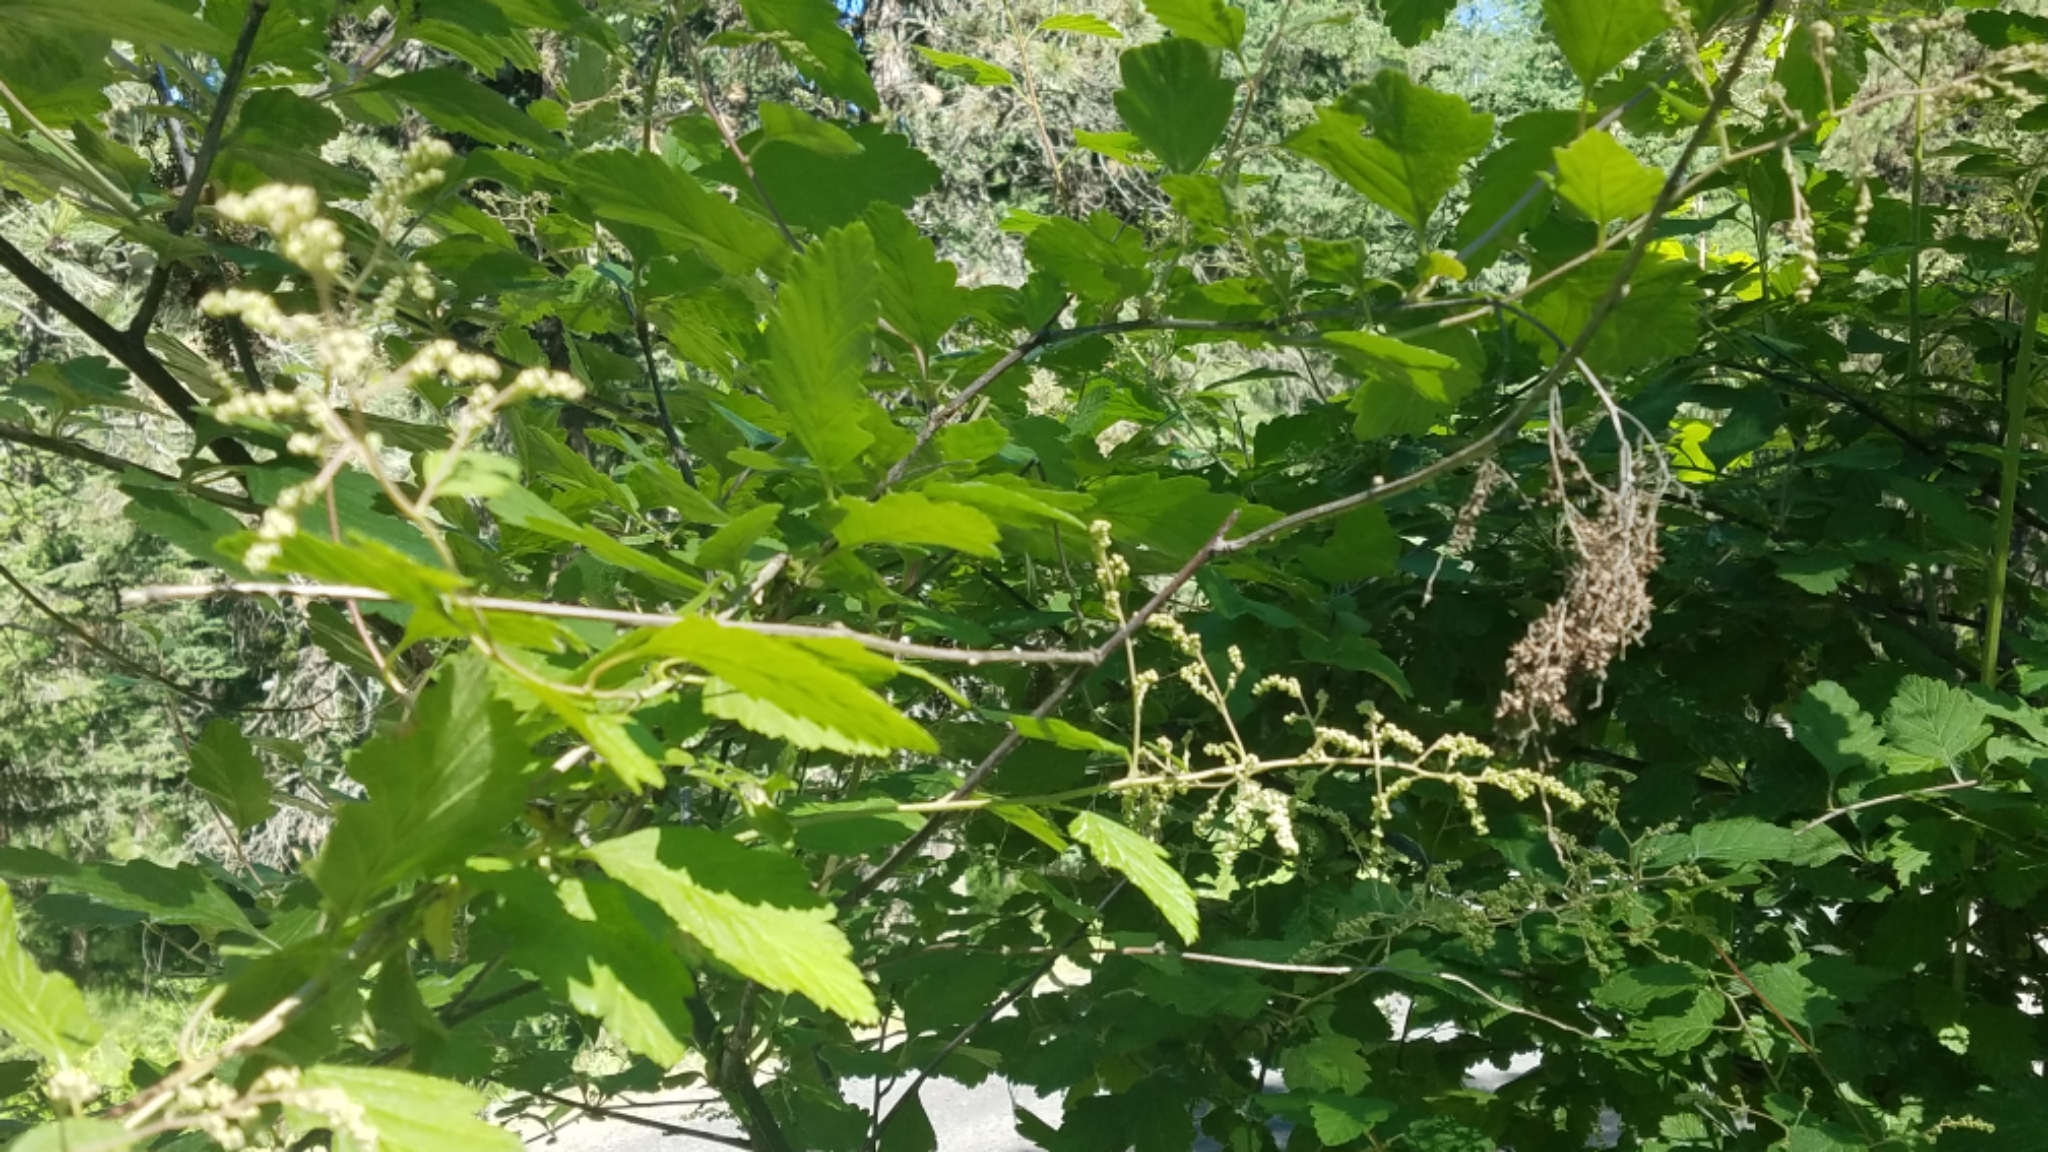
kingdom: Plantae
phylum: Tracheophyta
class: Magnoliopsida
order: Rosales
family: Rosaceae
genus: Holodiscus
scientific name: Holodiscus discolor
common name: Oceanspray
